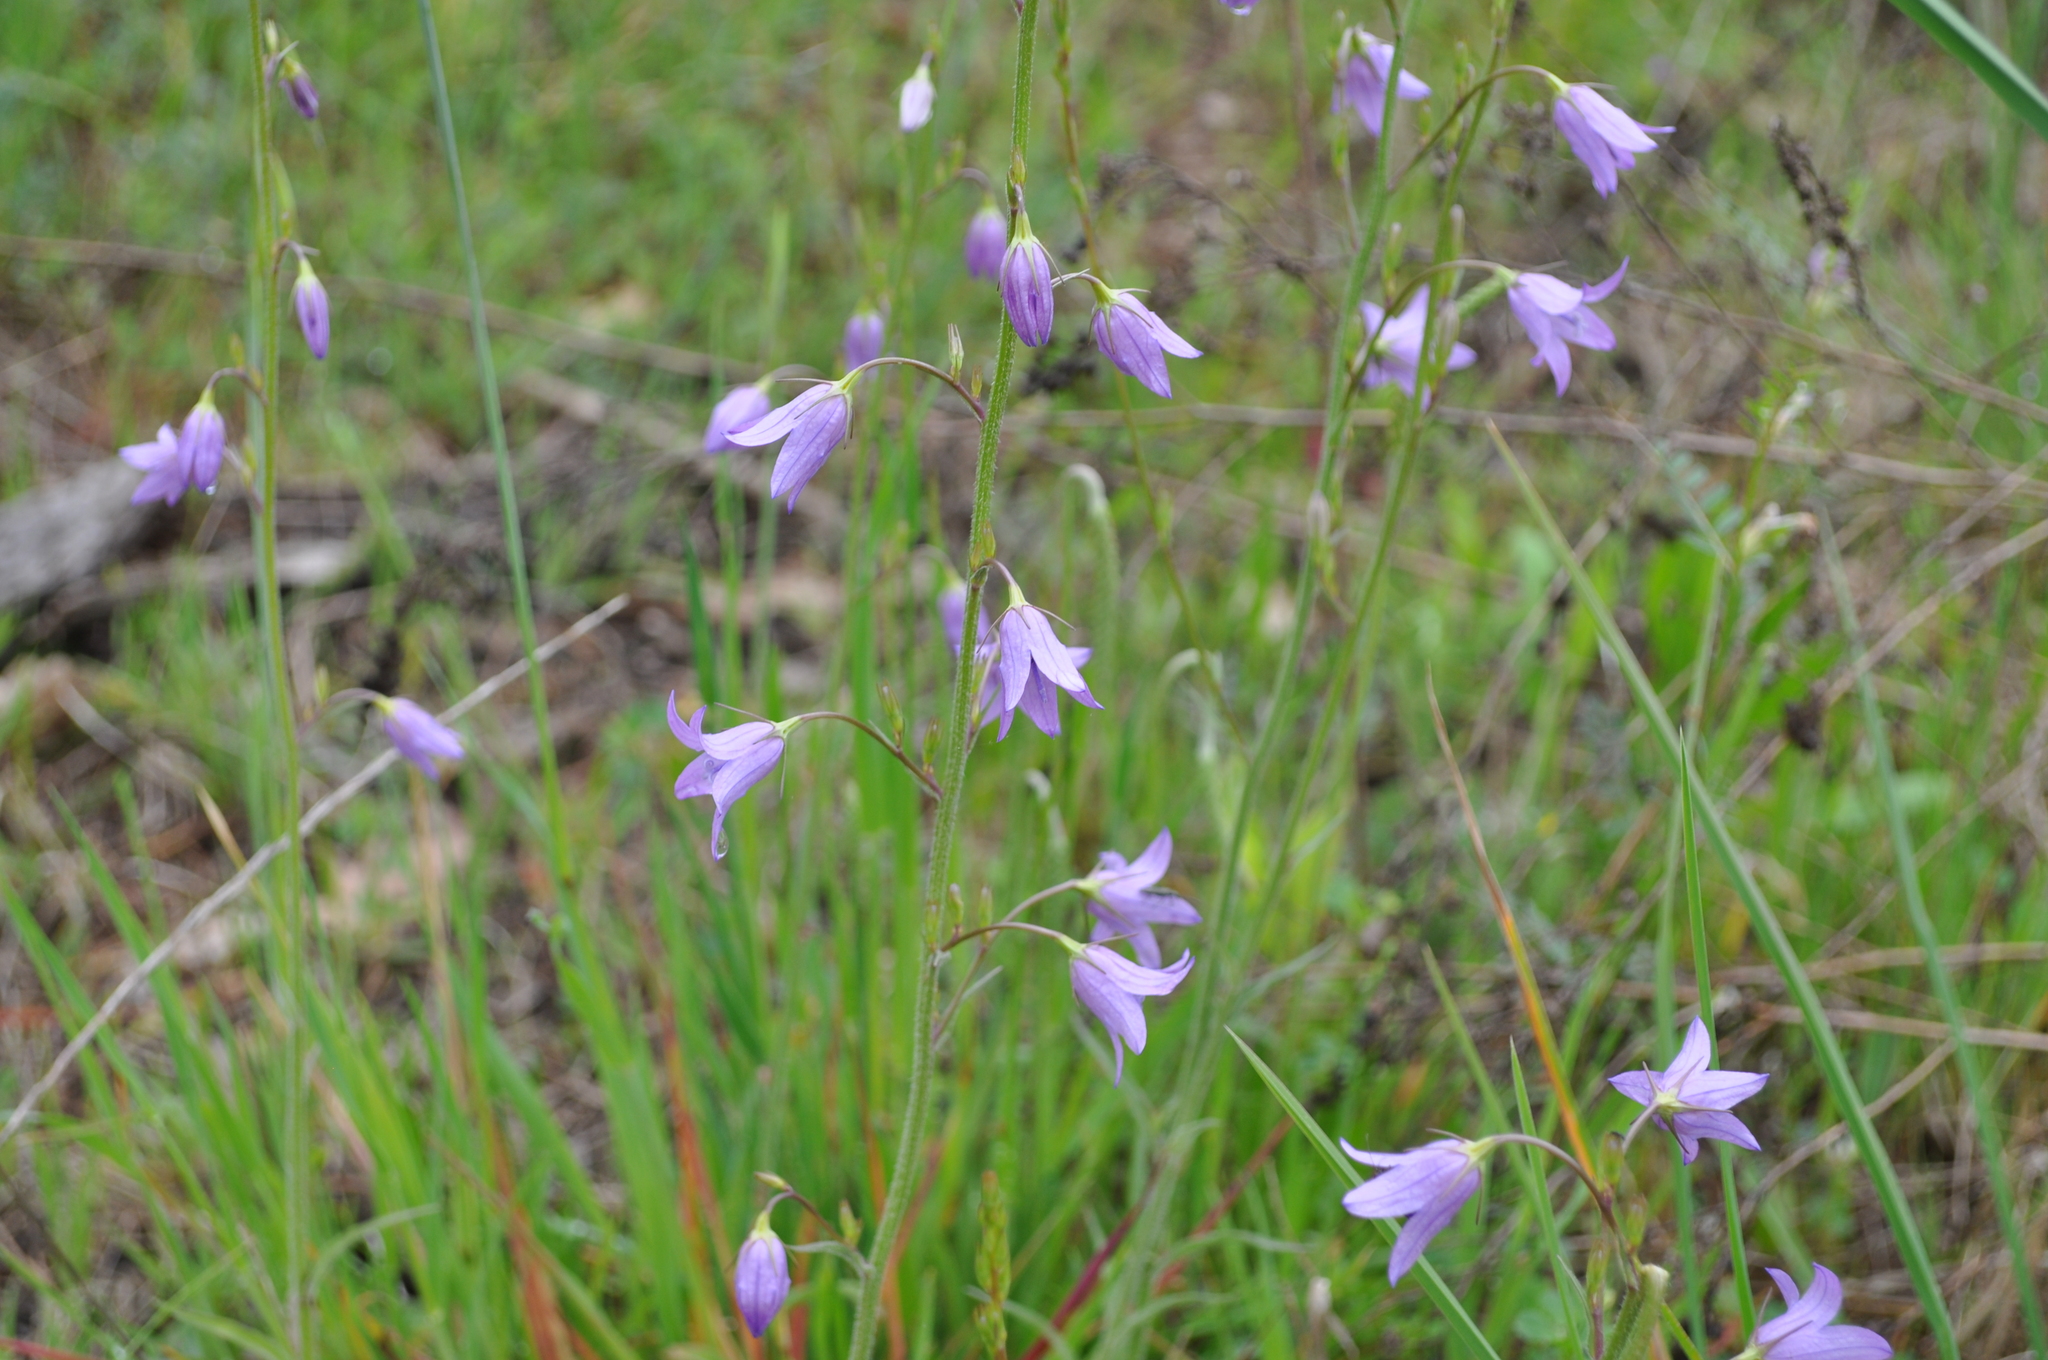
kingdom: Plantae
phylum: Tracheophyta
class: Magnoliopsida
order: Asterales
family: Campanulaceae
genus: Campanula
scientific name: Campanula rapunculus
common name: Rampion bellflower
